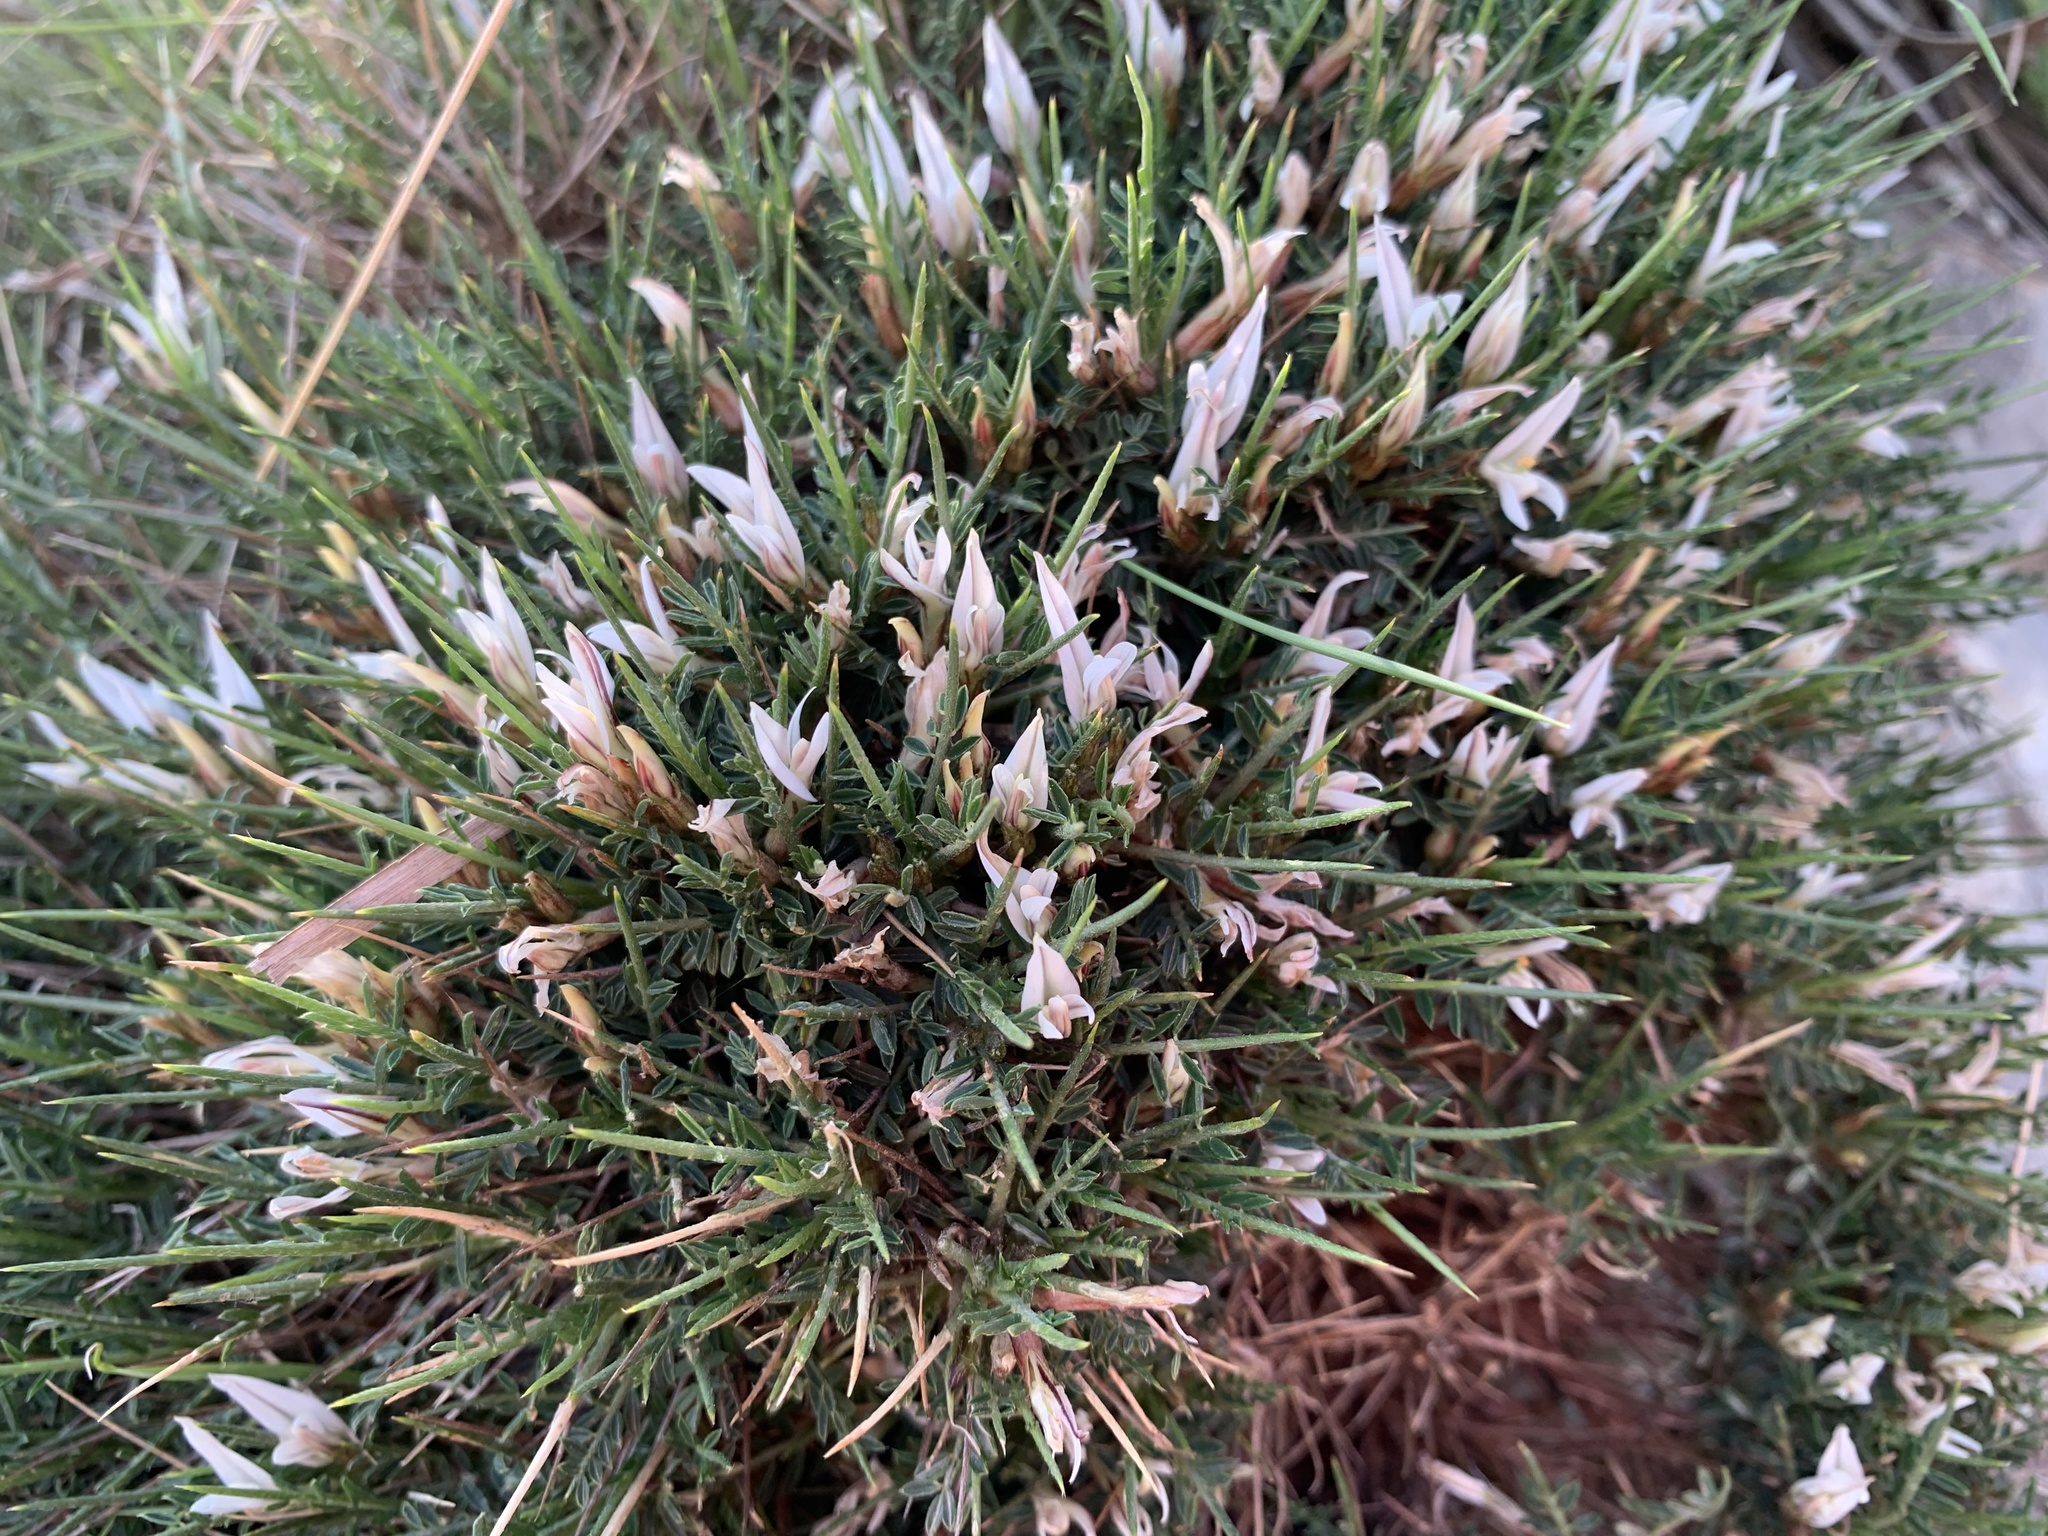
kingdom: Plantae
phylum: Tracheophyta
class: Magnoliopsida
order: Fabales
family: Fabaceae
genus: Astragalus
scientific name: Astragalus balearicus
